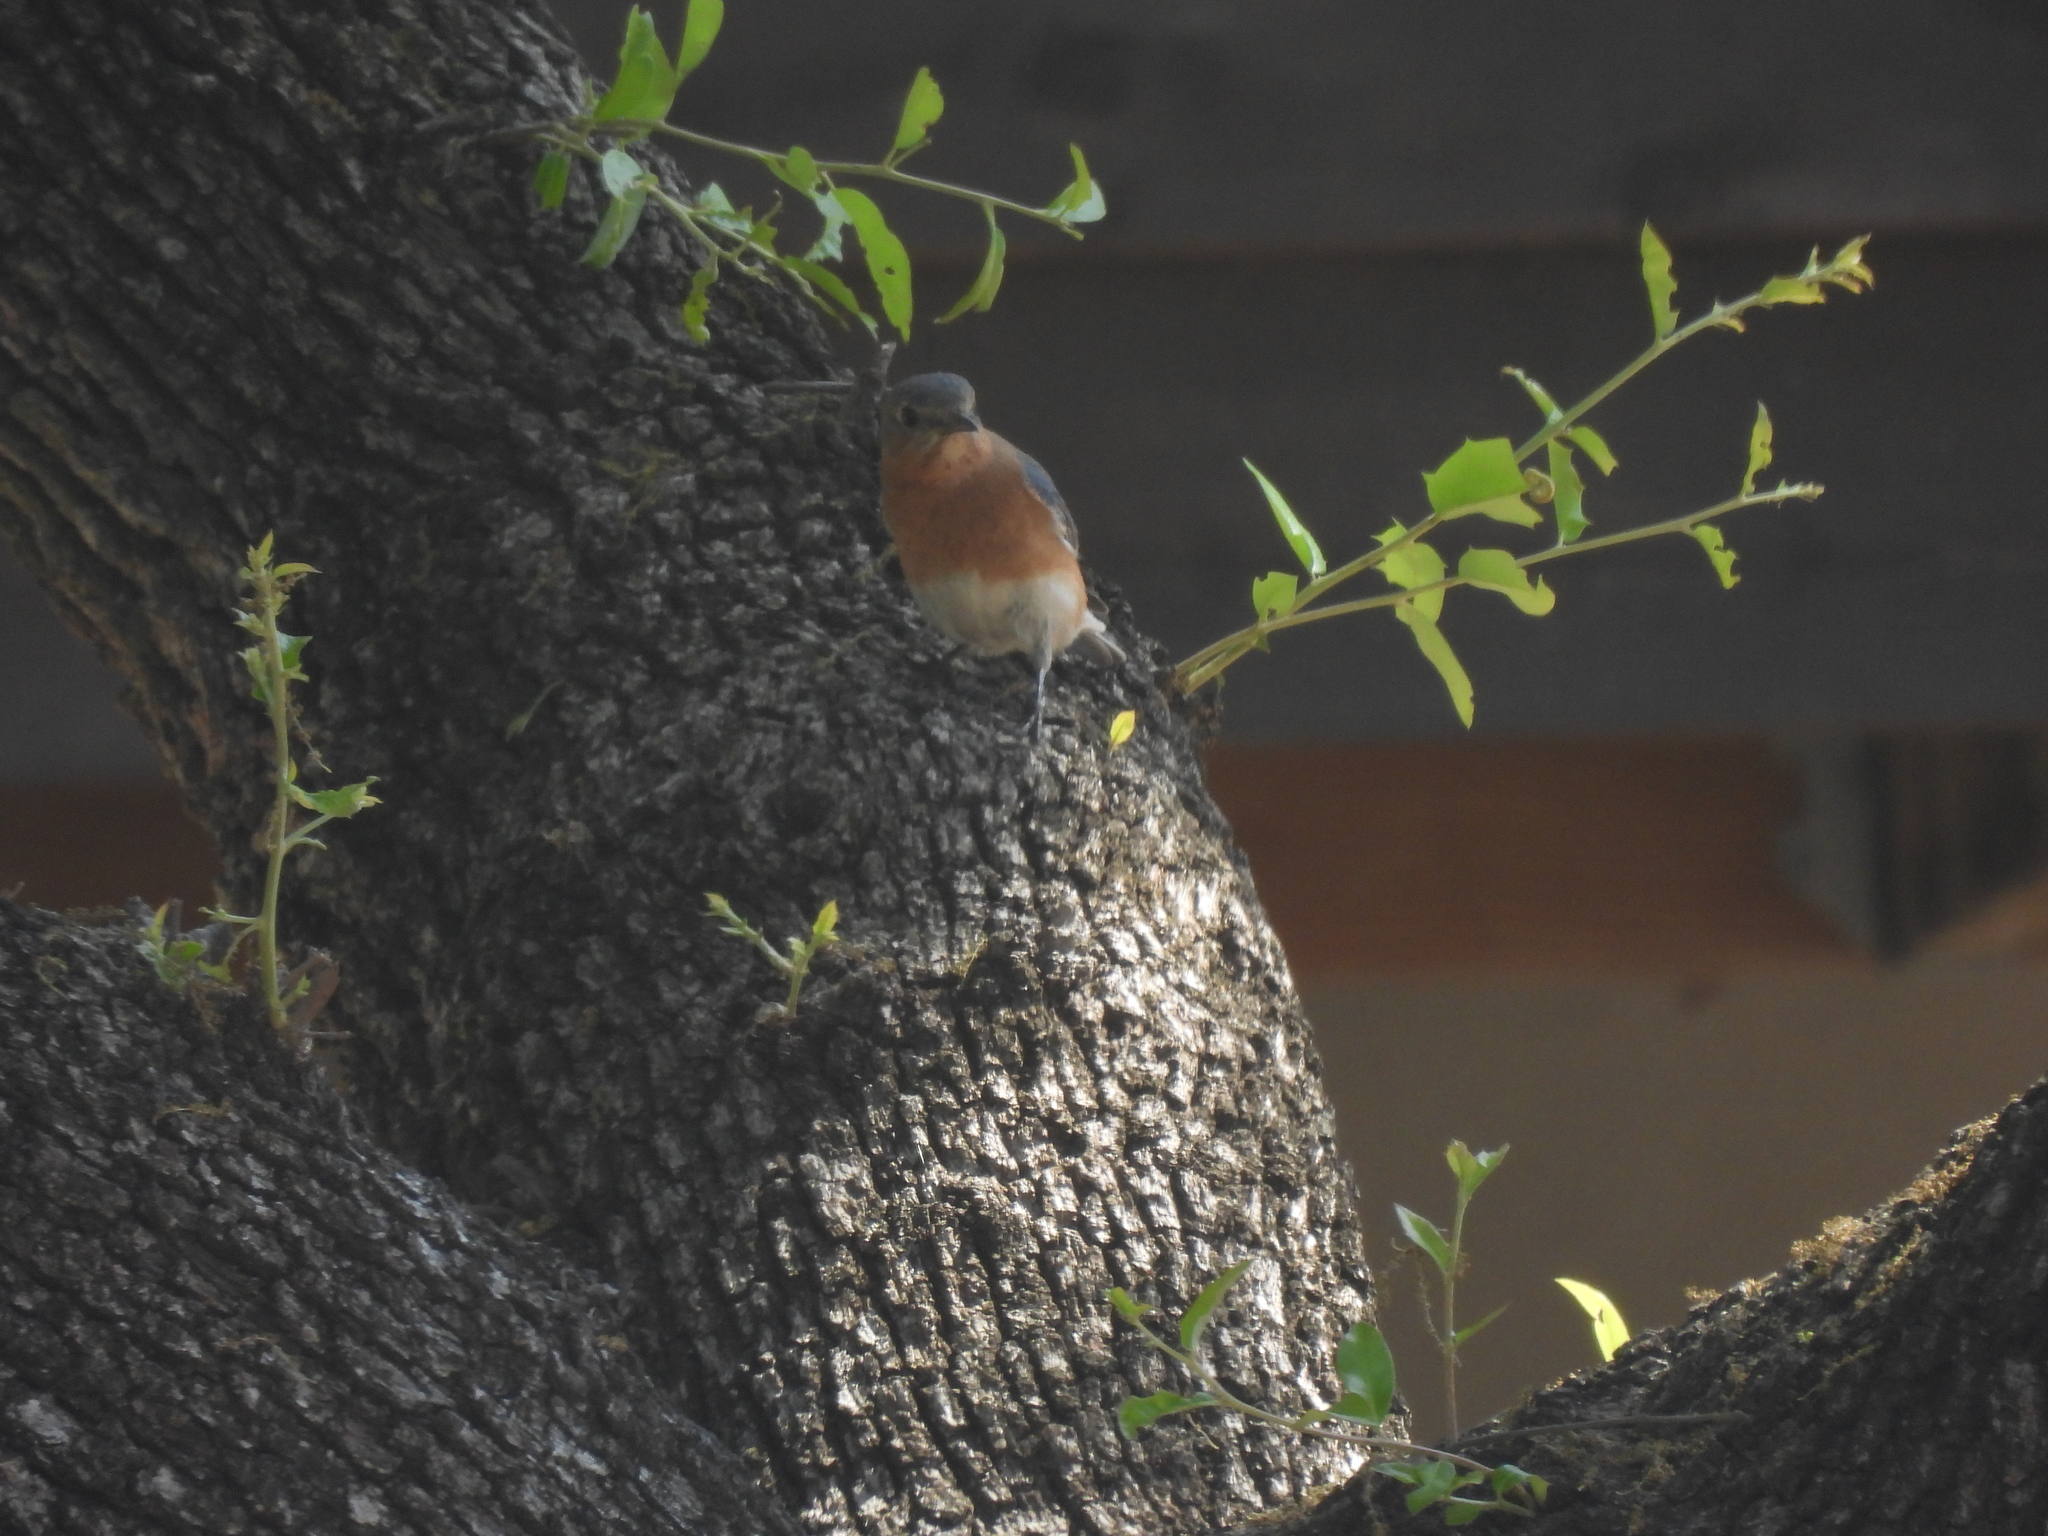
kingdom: Animalia
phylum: Chordata
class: Aves
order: Passeriformes
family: Turdidae
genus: Sialia
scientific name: Sialia sialis
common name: Eastern bluebird
